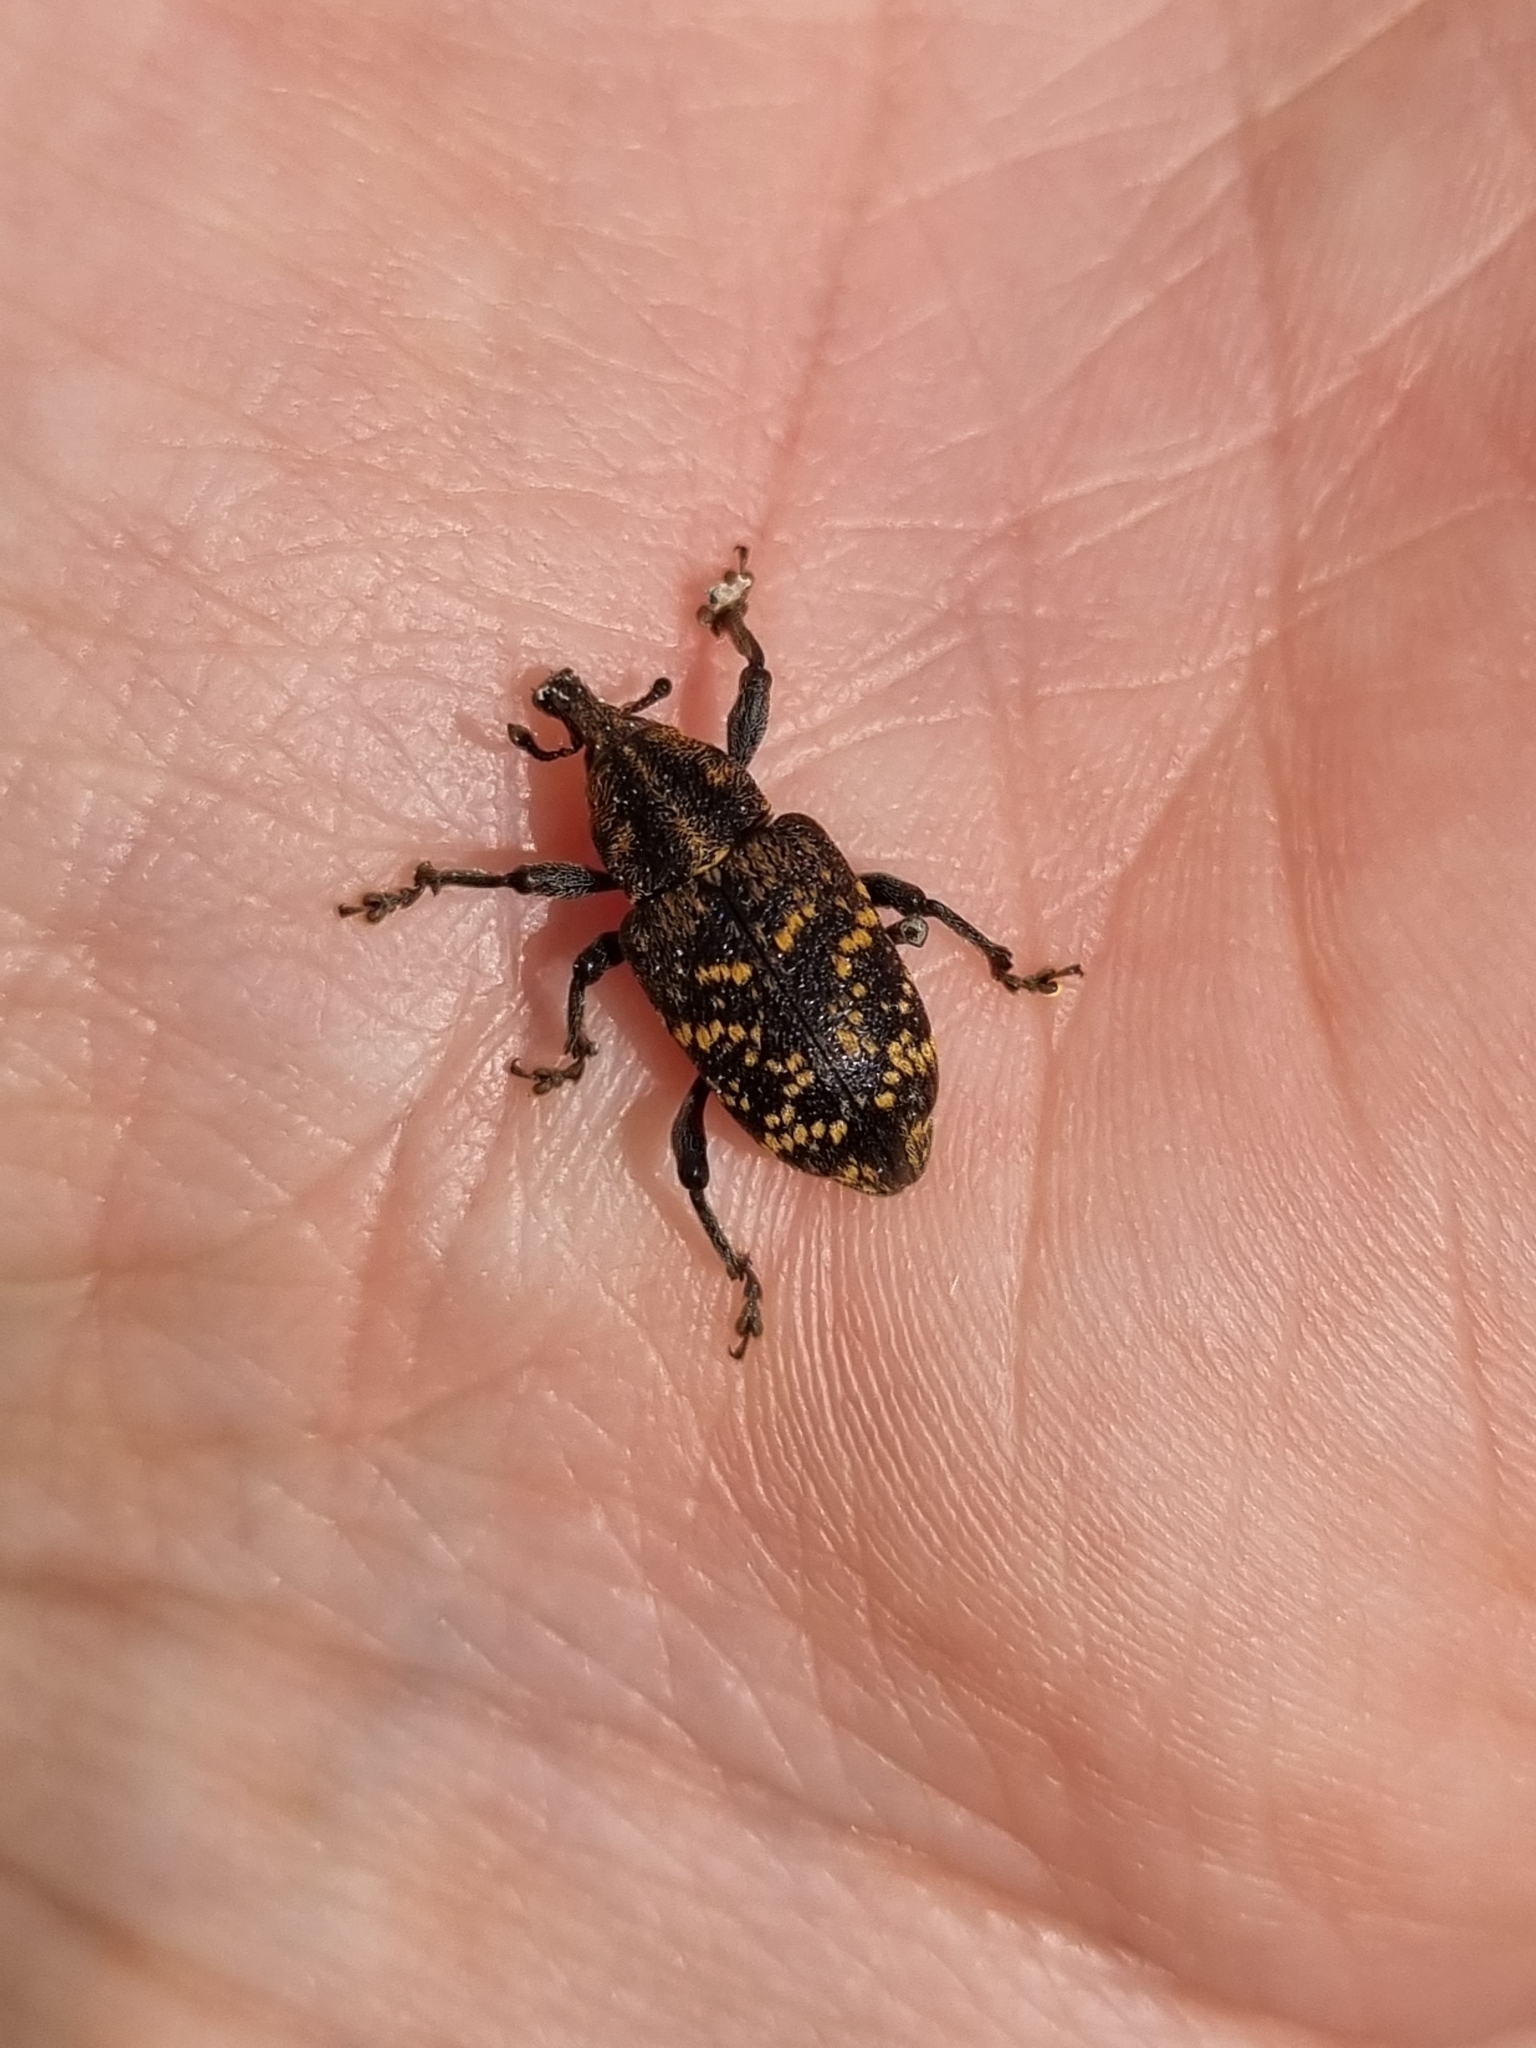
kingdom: Animalia
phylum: Arthropoda
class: Insecta
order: Coleoptera
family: Curculionidae
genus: Hylobius
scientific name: Hylobius abietis
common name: Large pine weevil
